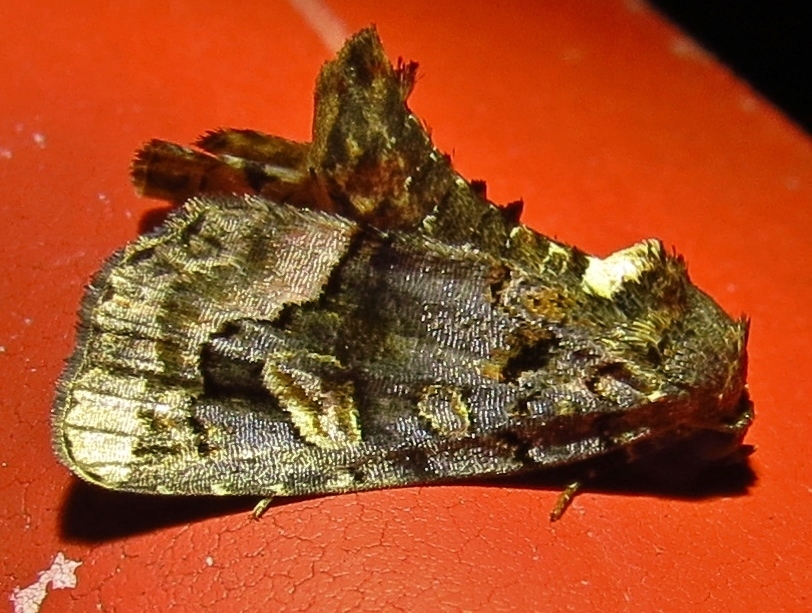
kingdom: Animalia
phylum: Arthropoda
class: Insecta
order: Lepidoptera
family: Noctuidae
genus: Homophoberia
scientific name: Homophoberia apicosa
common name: Black wedge-spot
